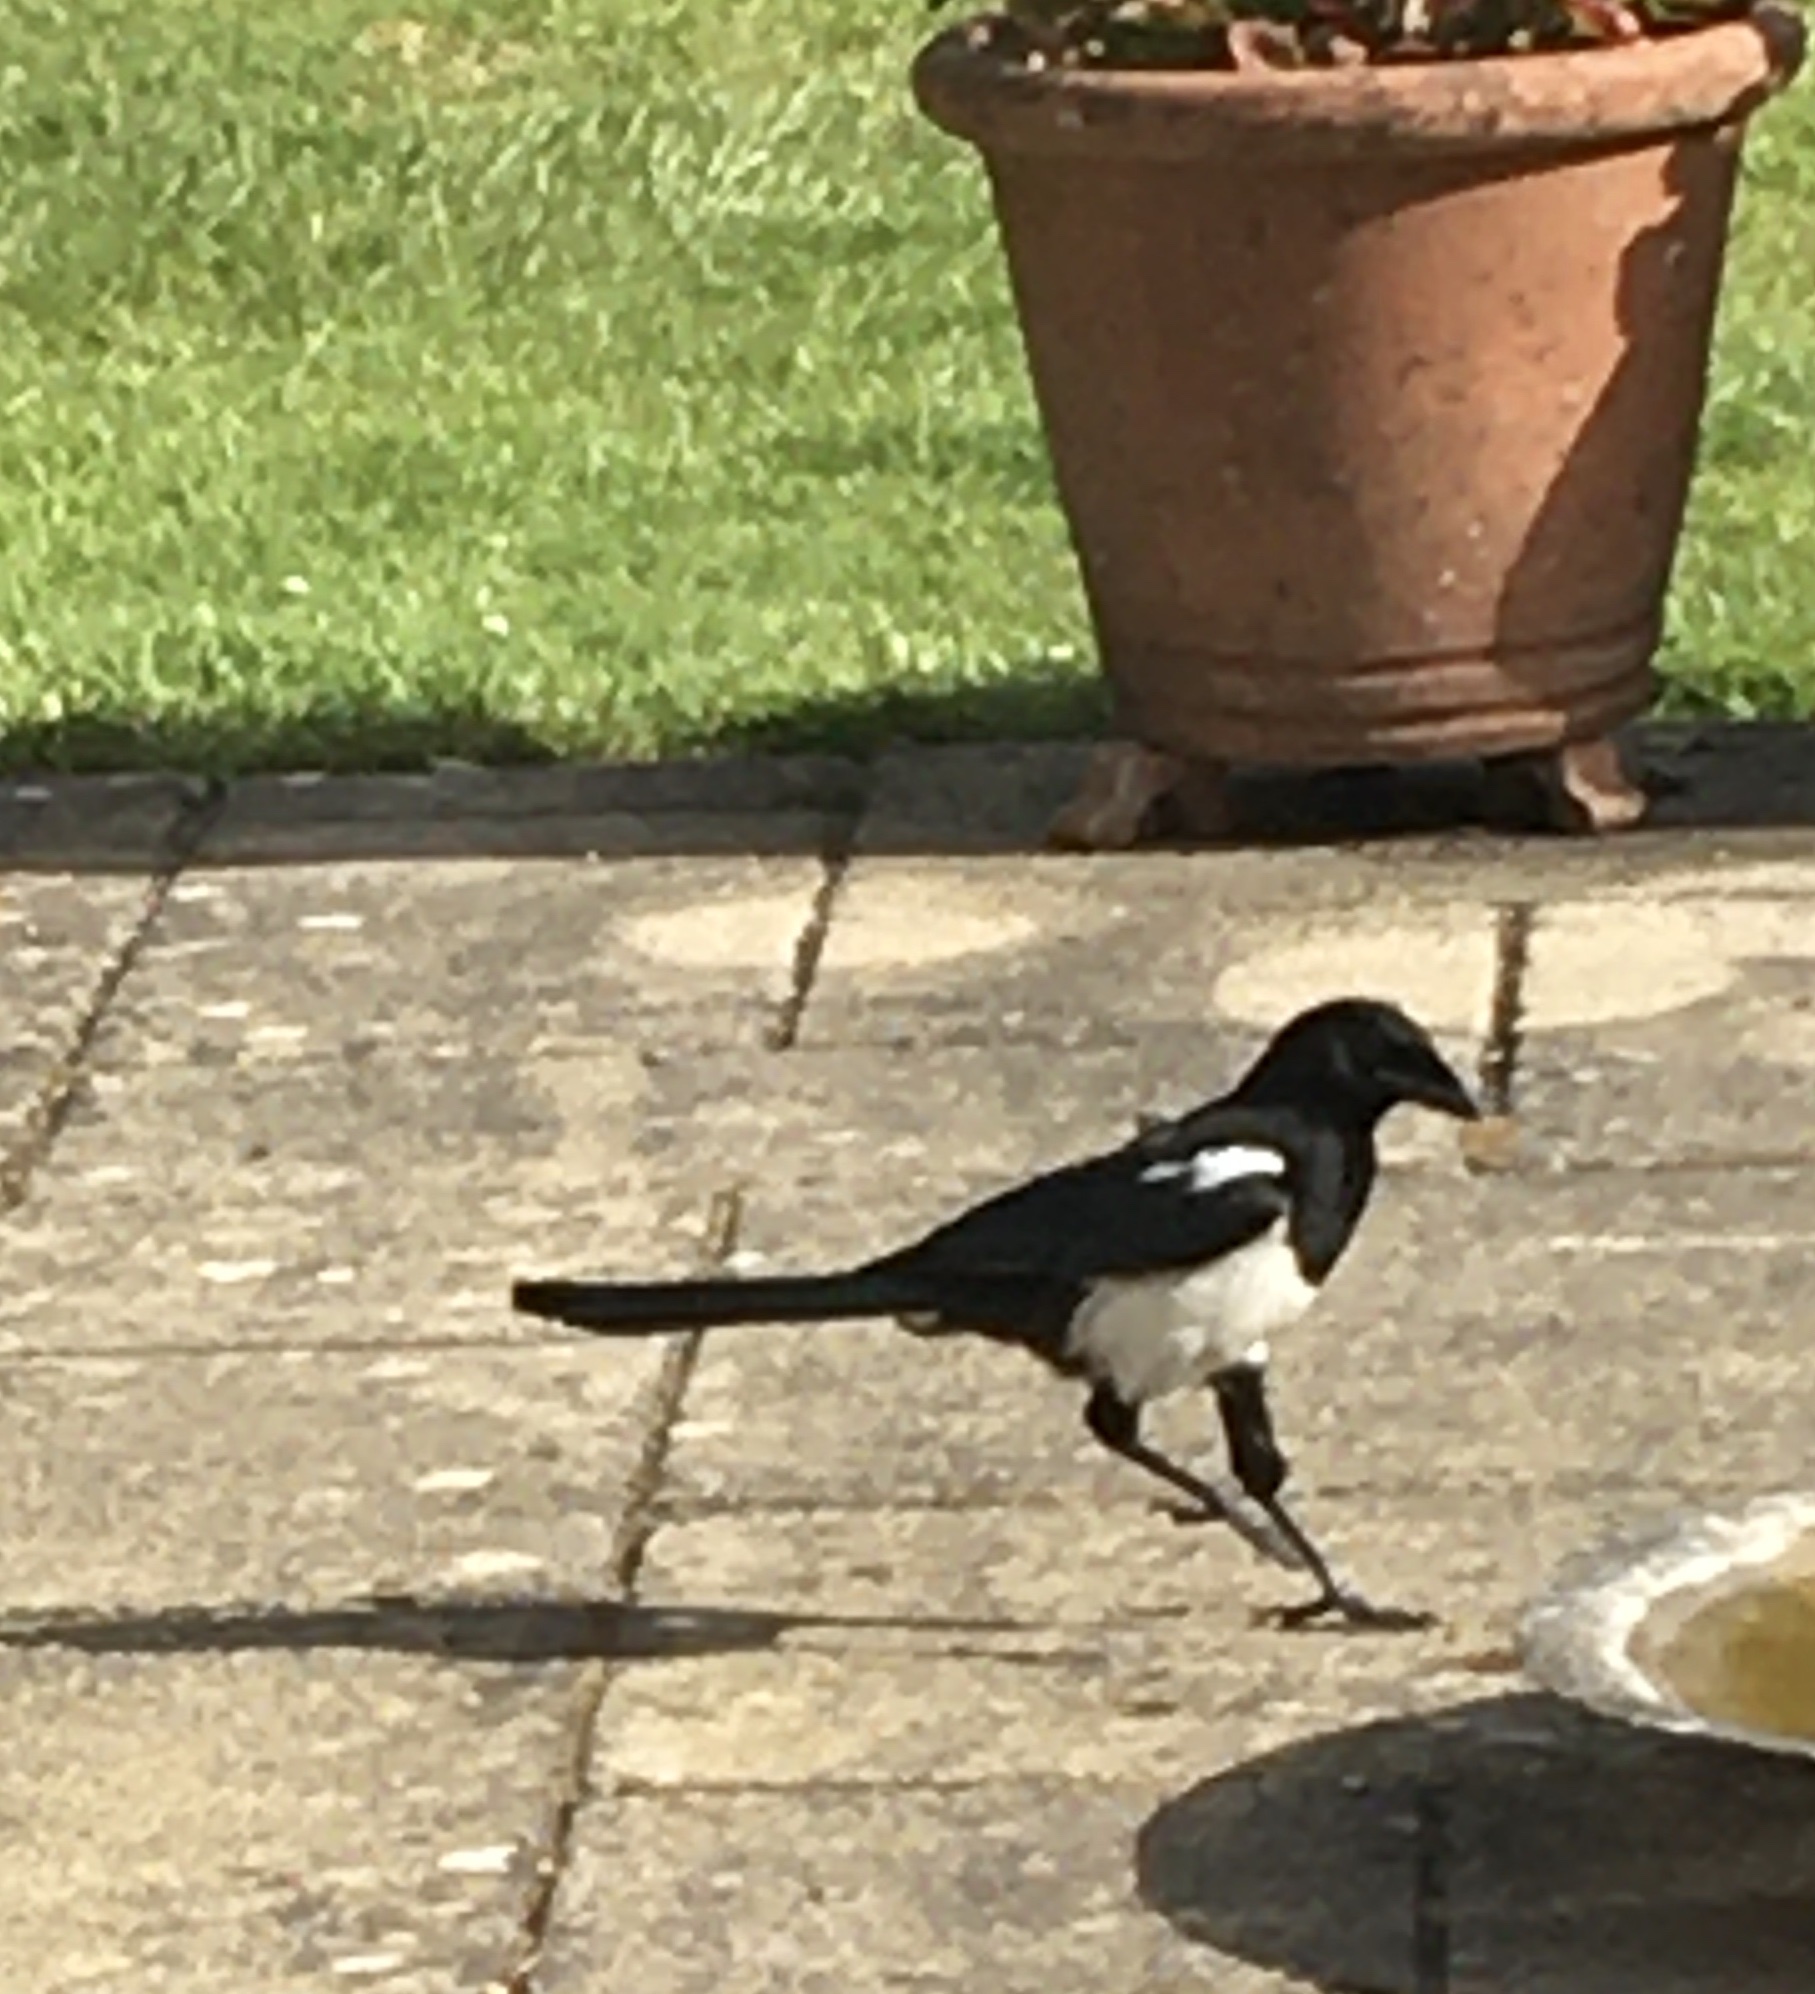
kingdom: Animalia
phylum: Chordata
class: Aves
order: Passeriformes
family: Corvidae
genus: Pica
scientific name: Pica pica
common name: Eurasian magpie
